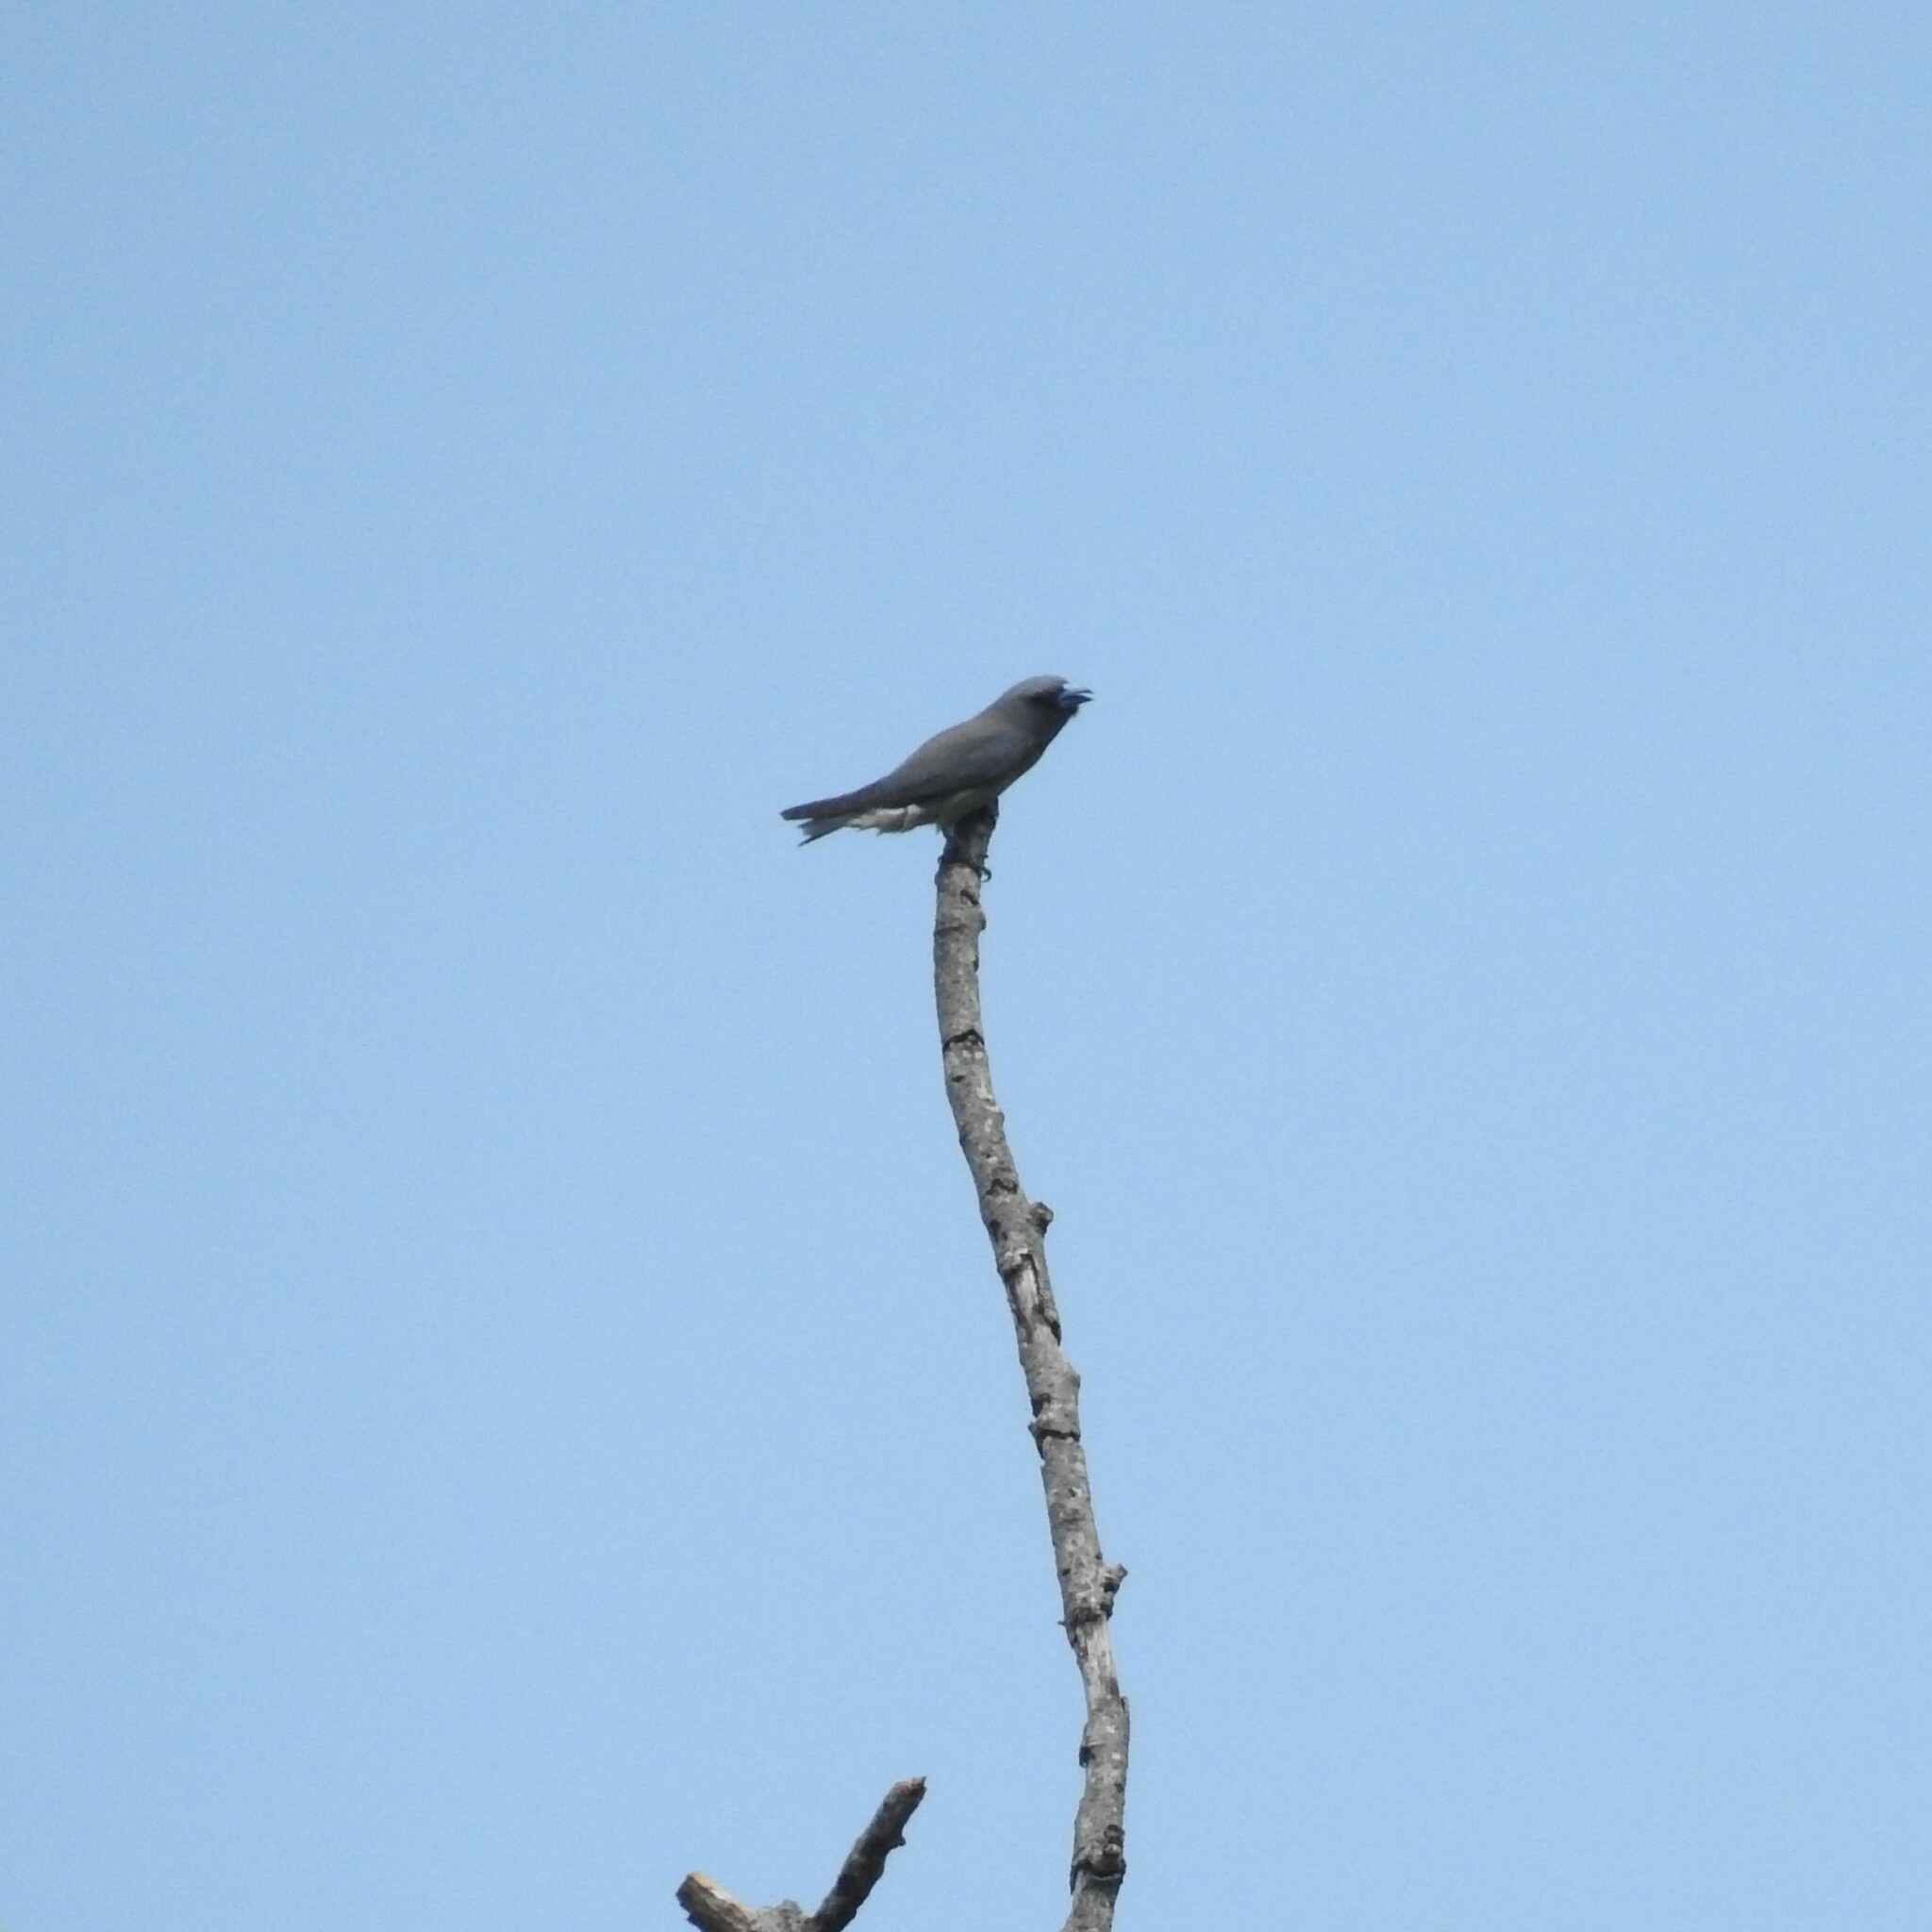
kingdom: Animalia
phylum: Chordata
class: Aves
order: Passeriformes
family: Artamidae
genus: Artamus
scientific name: Artamus fuscus
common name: Ashy woodswallow
